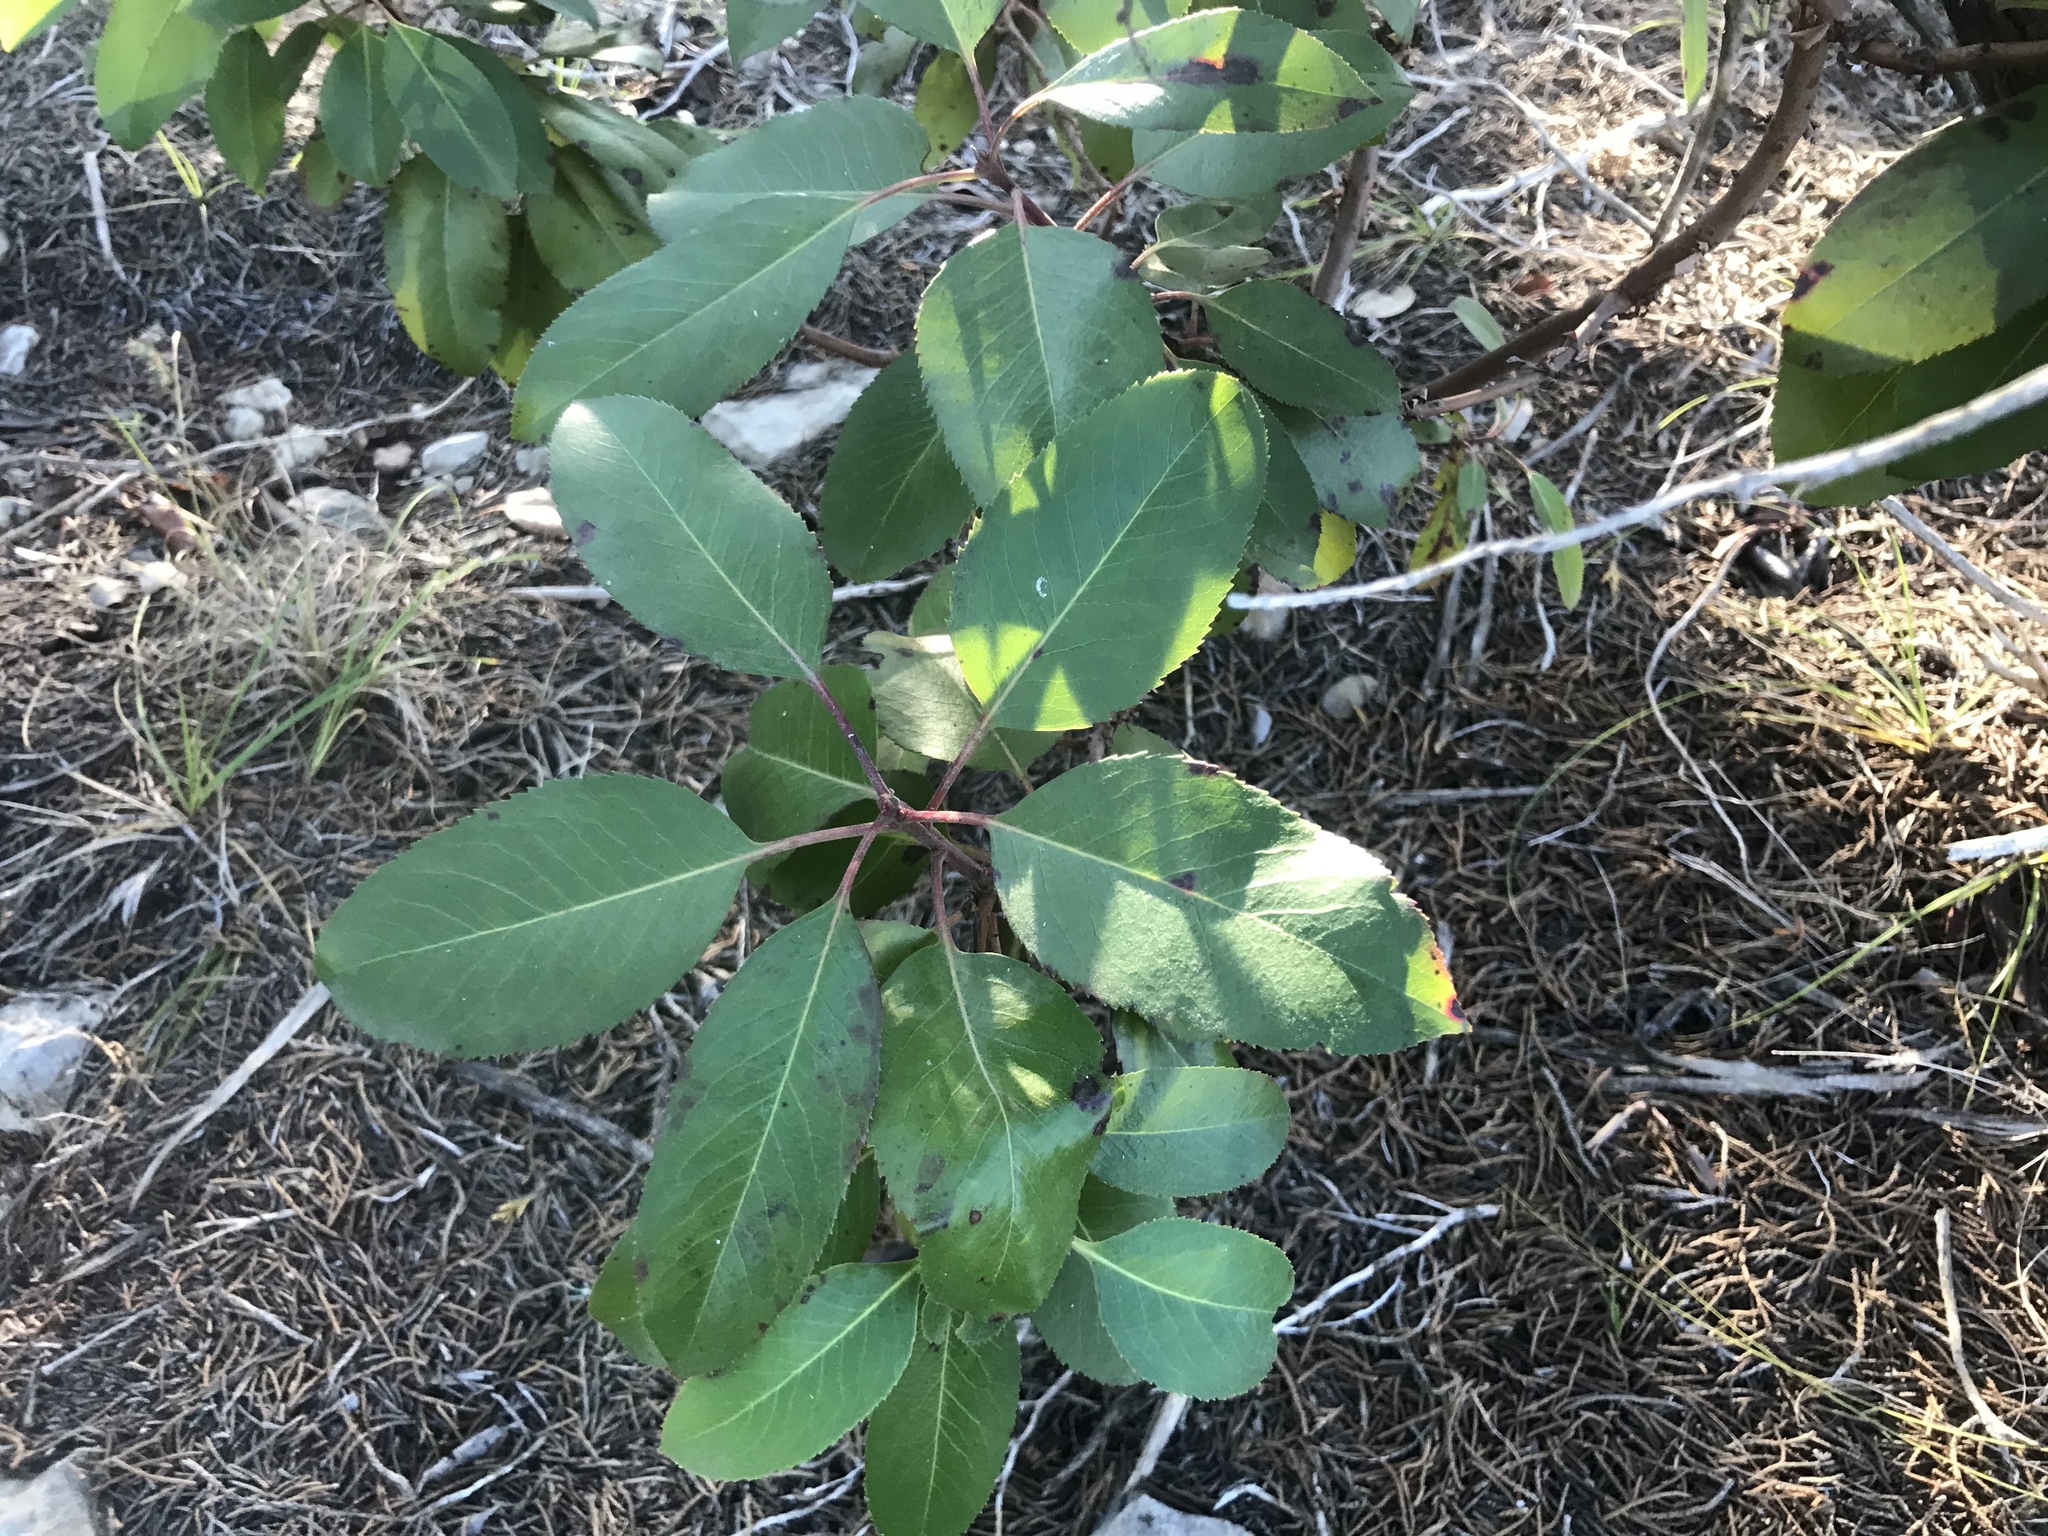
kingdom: Plantae
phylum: Tracheophyta
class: Magnoliopsida
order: Ericales
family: Ericaceae
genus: Arbutus
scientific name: Arbutus xalapensis
